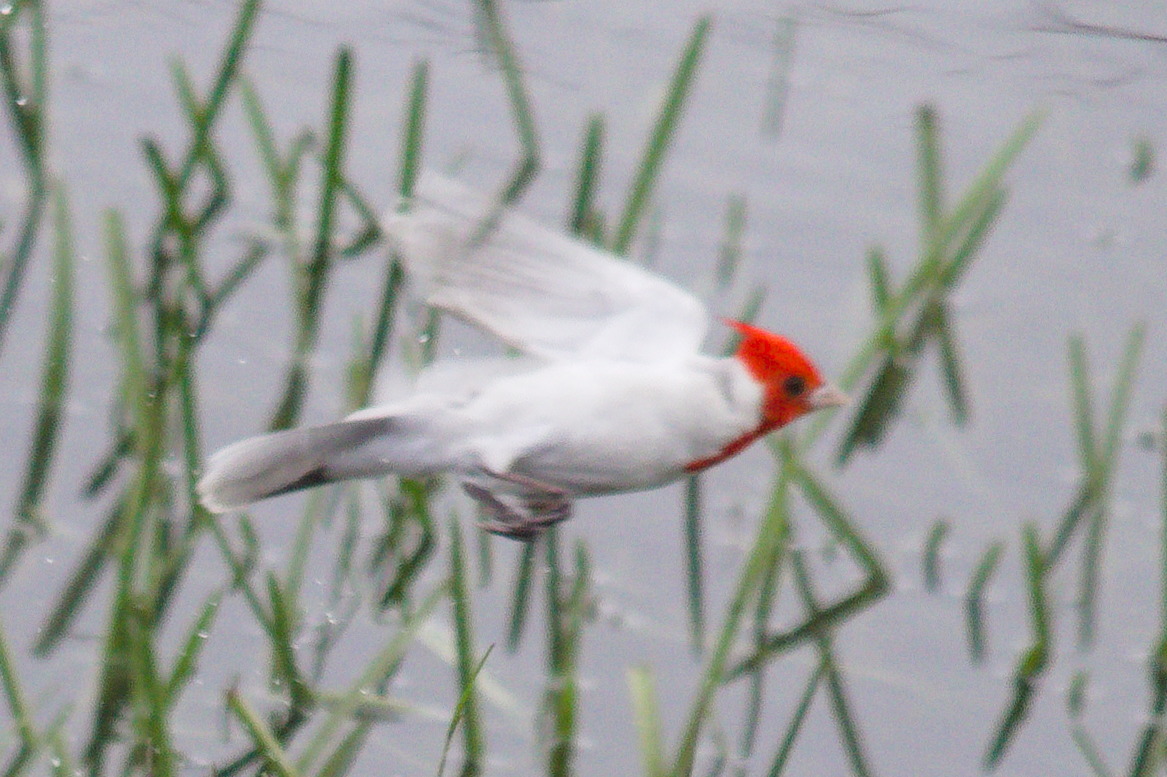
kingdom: Animalia
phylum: Chordata
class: Aves
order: Passeriformes
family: Thraupidae
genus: Paroaria
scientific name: Paroaria coronata
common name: Red-crested cardinal
